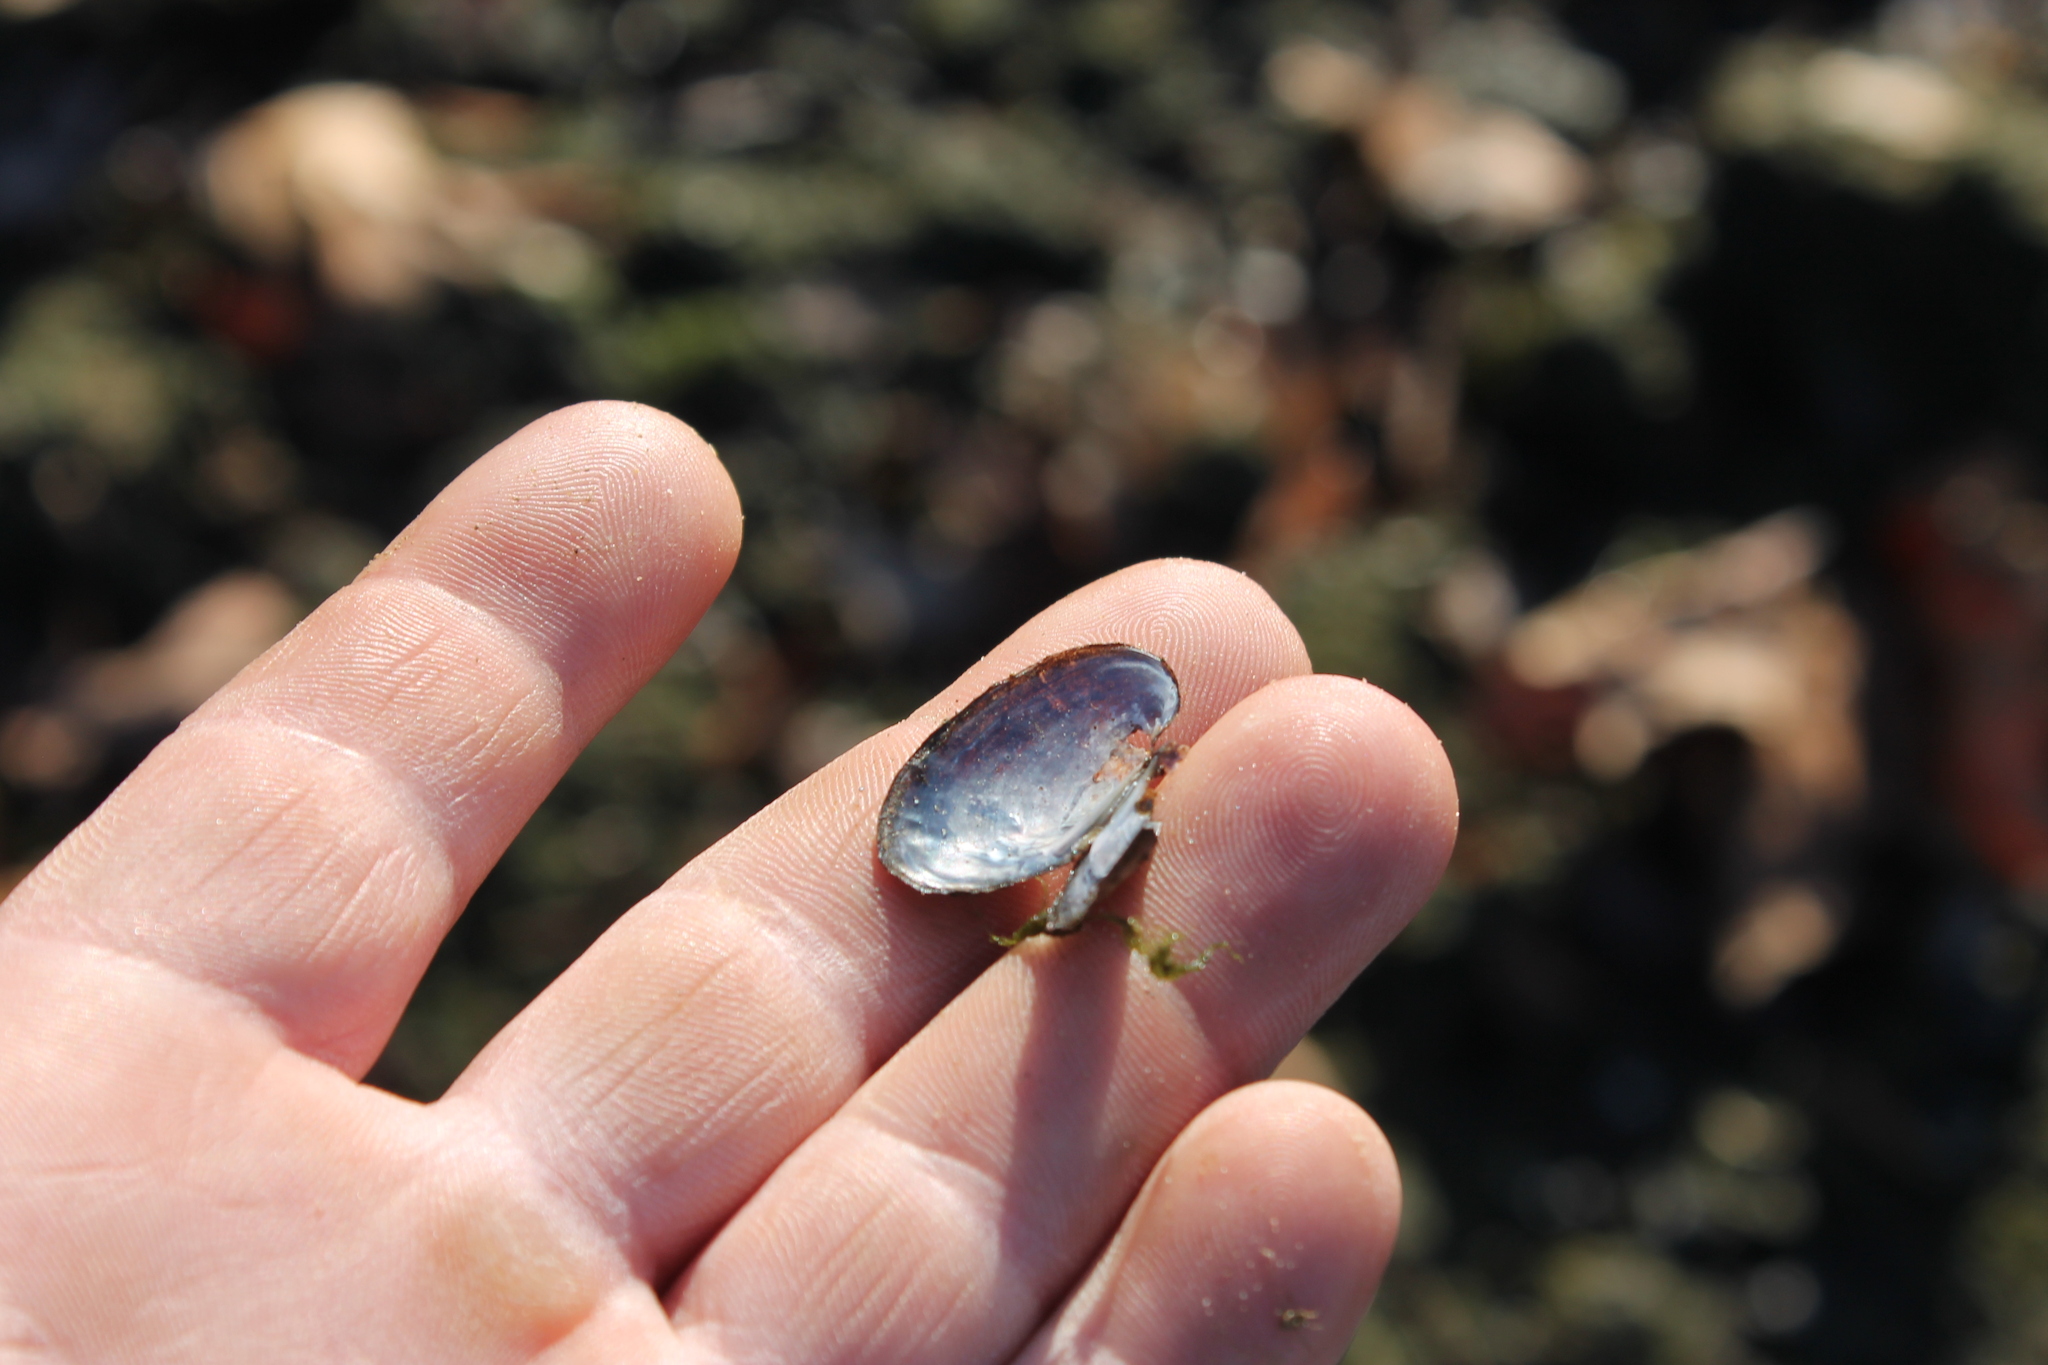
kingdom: Animalia
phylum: Mollusca
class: Bivalvia
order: Unionida
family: Unionidae
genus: Toxolasma
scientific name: Toxolasma parvum
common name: Lilliput
